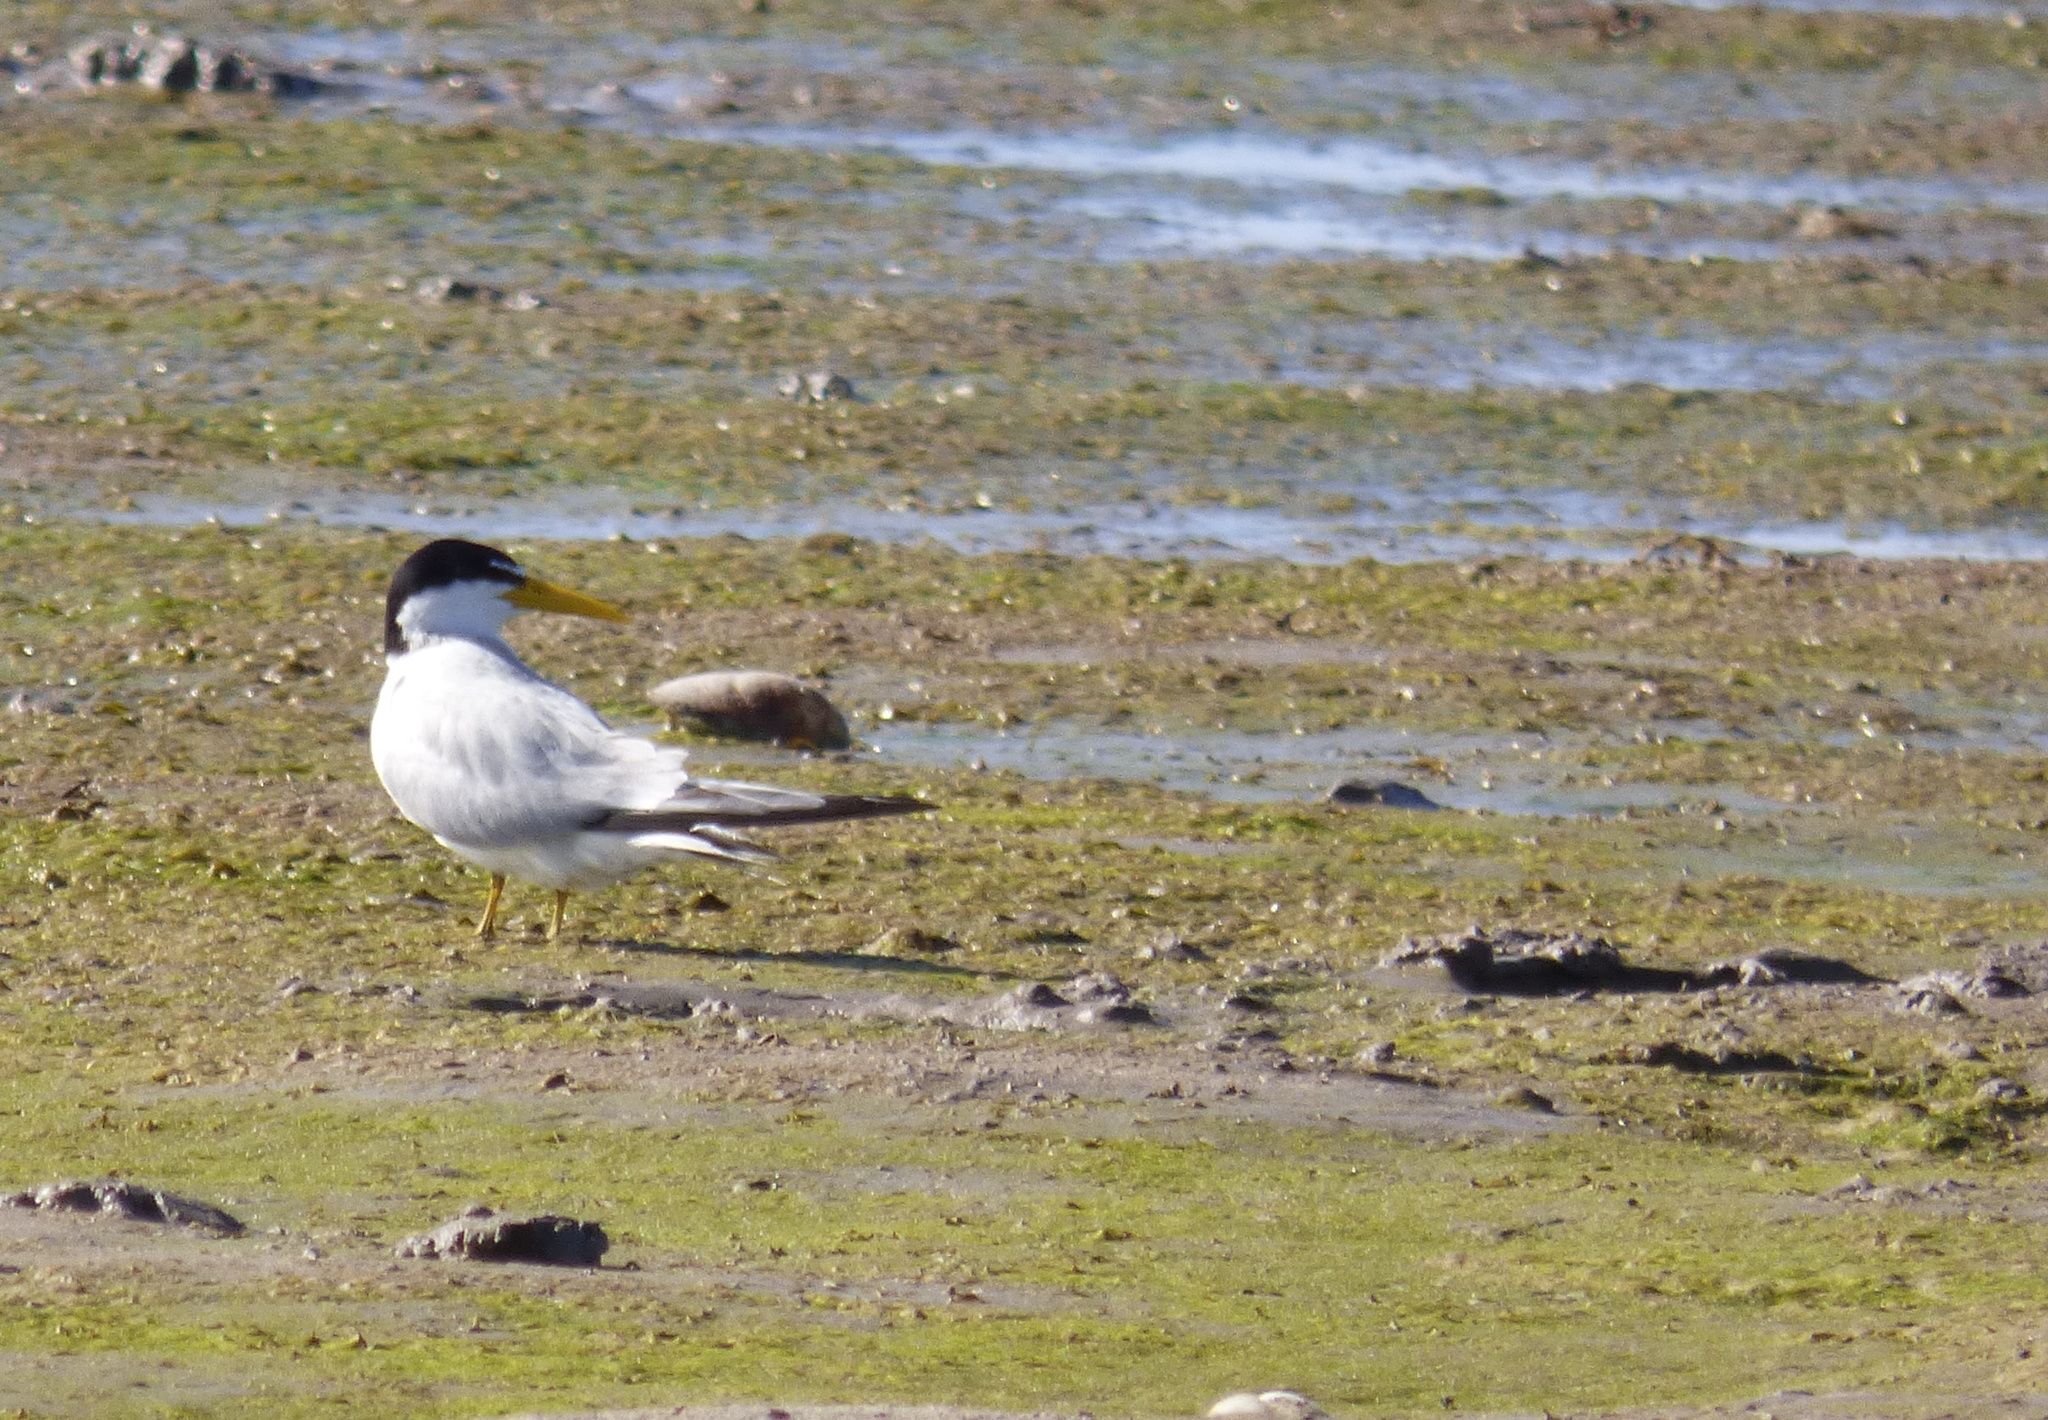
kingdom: Animalia
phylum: Chordata
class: Aves
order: Charadriiformes
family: Laridae
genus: Sternula
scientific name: Sternula superciliaris
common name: Yellow-billed tern
